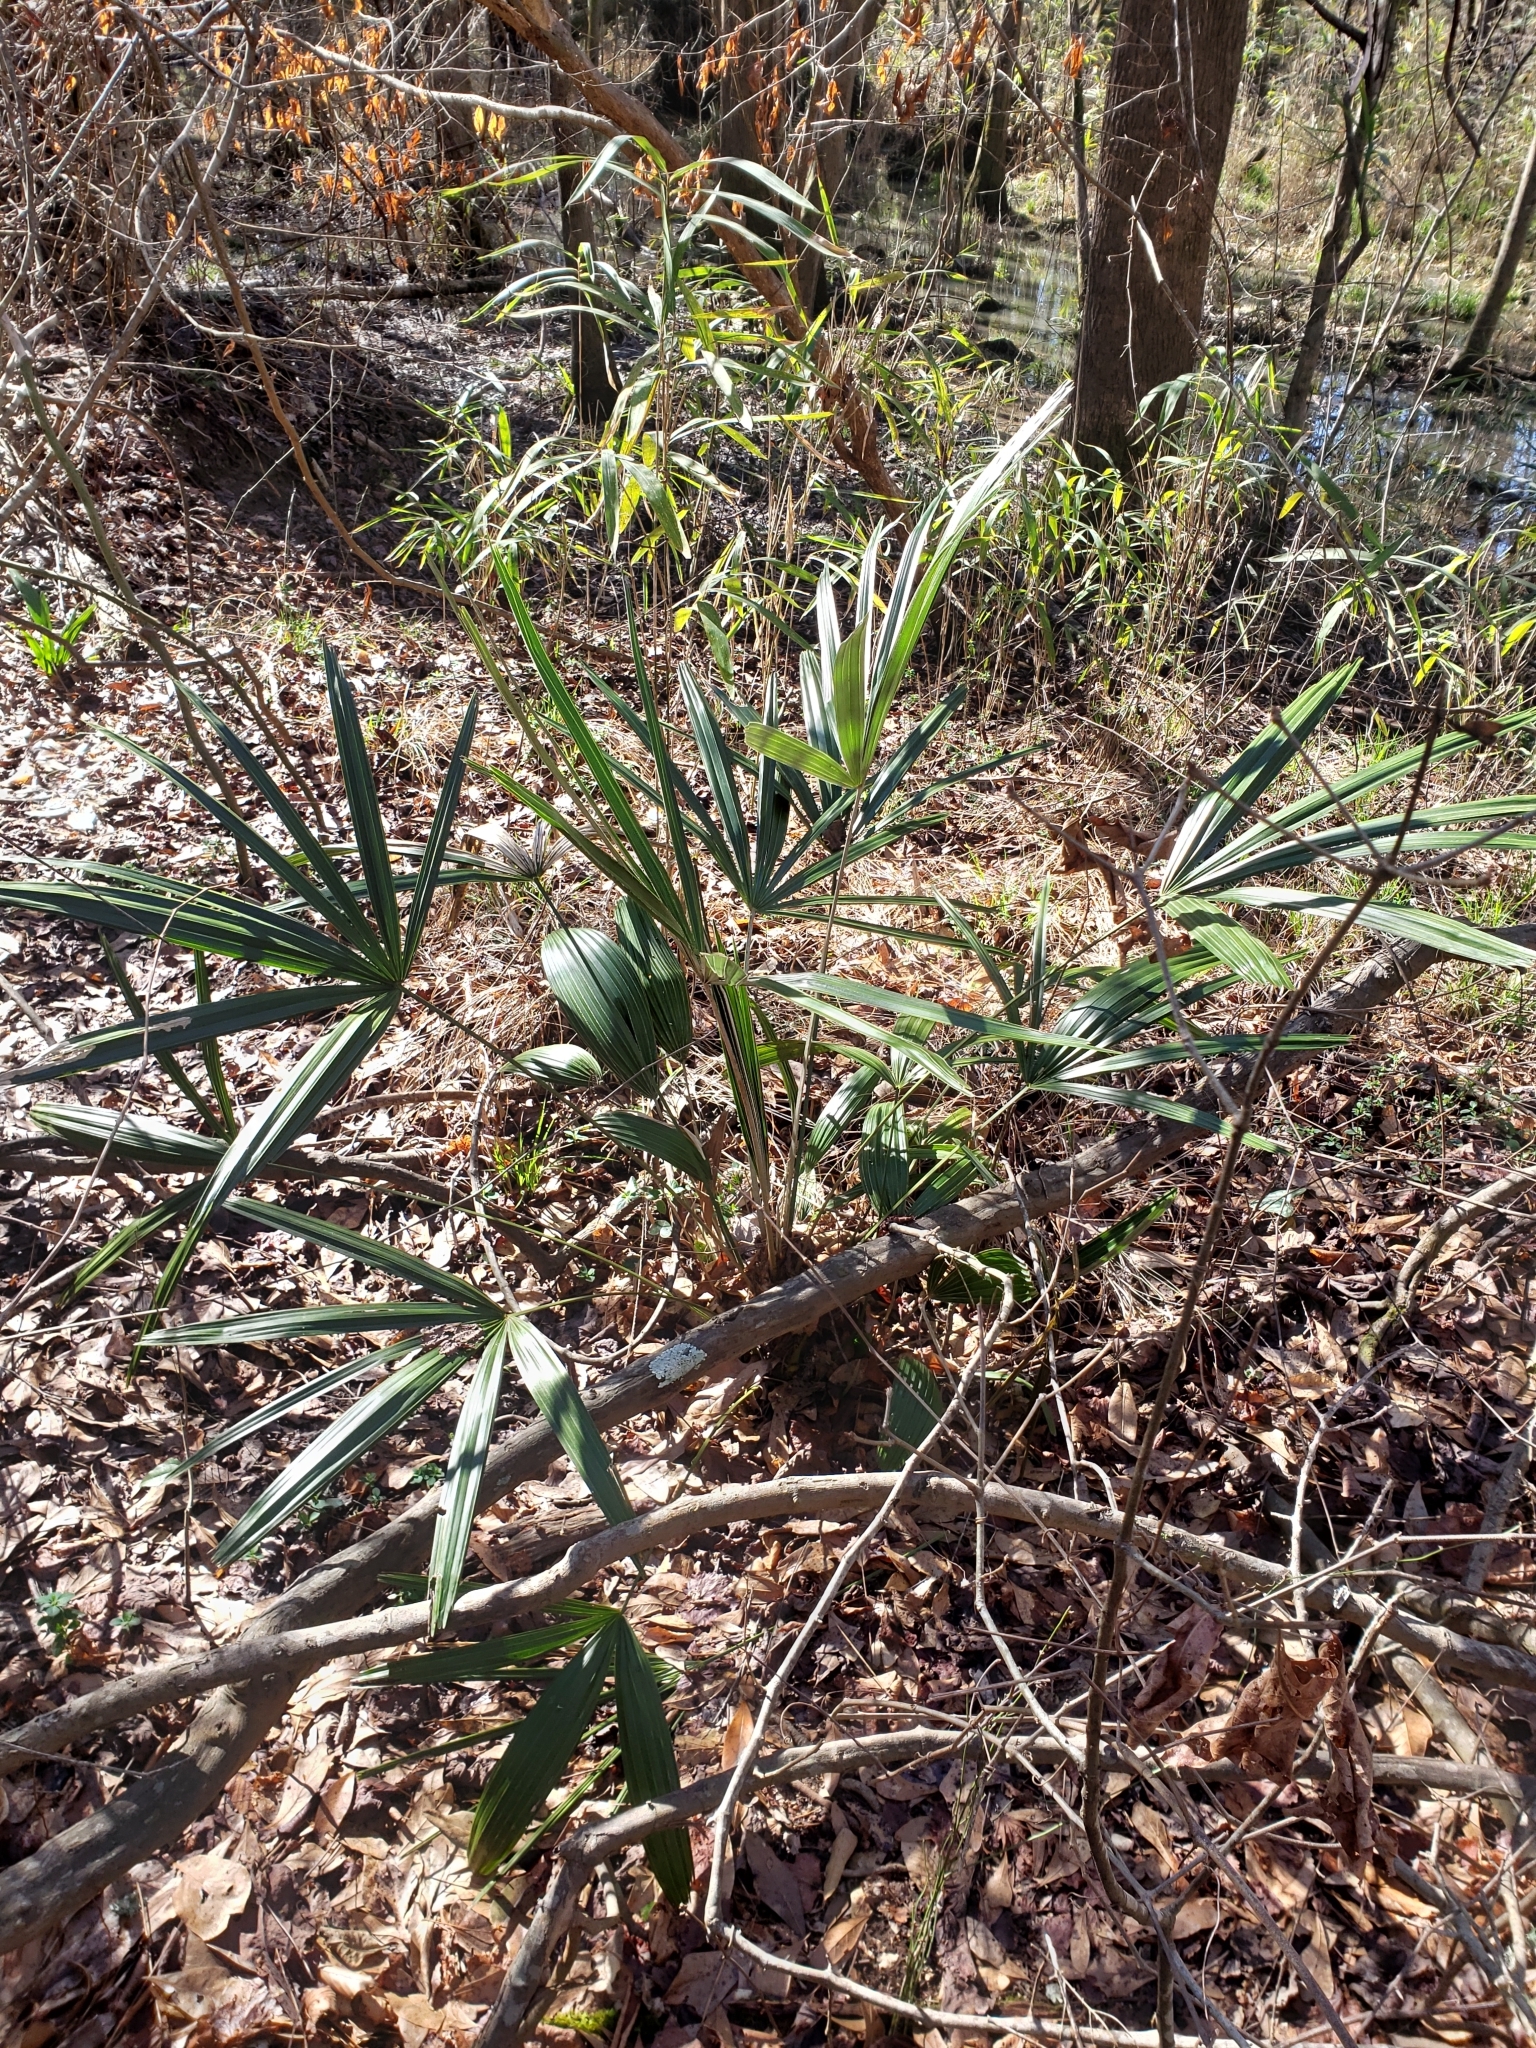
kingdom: Plantae
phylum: Tracheophyta
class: Liliopsida
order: Arecales
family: Arecaceae
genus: Rhapidophyllum
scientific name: Rhapidophyllum hystrix
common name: Porcupine palm
